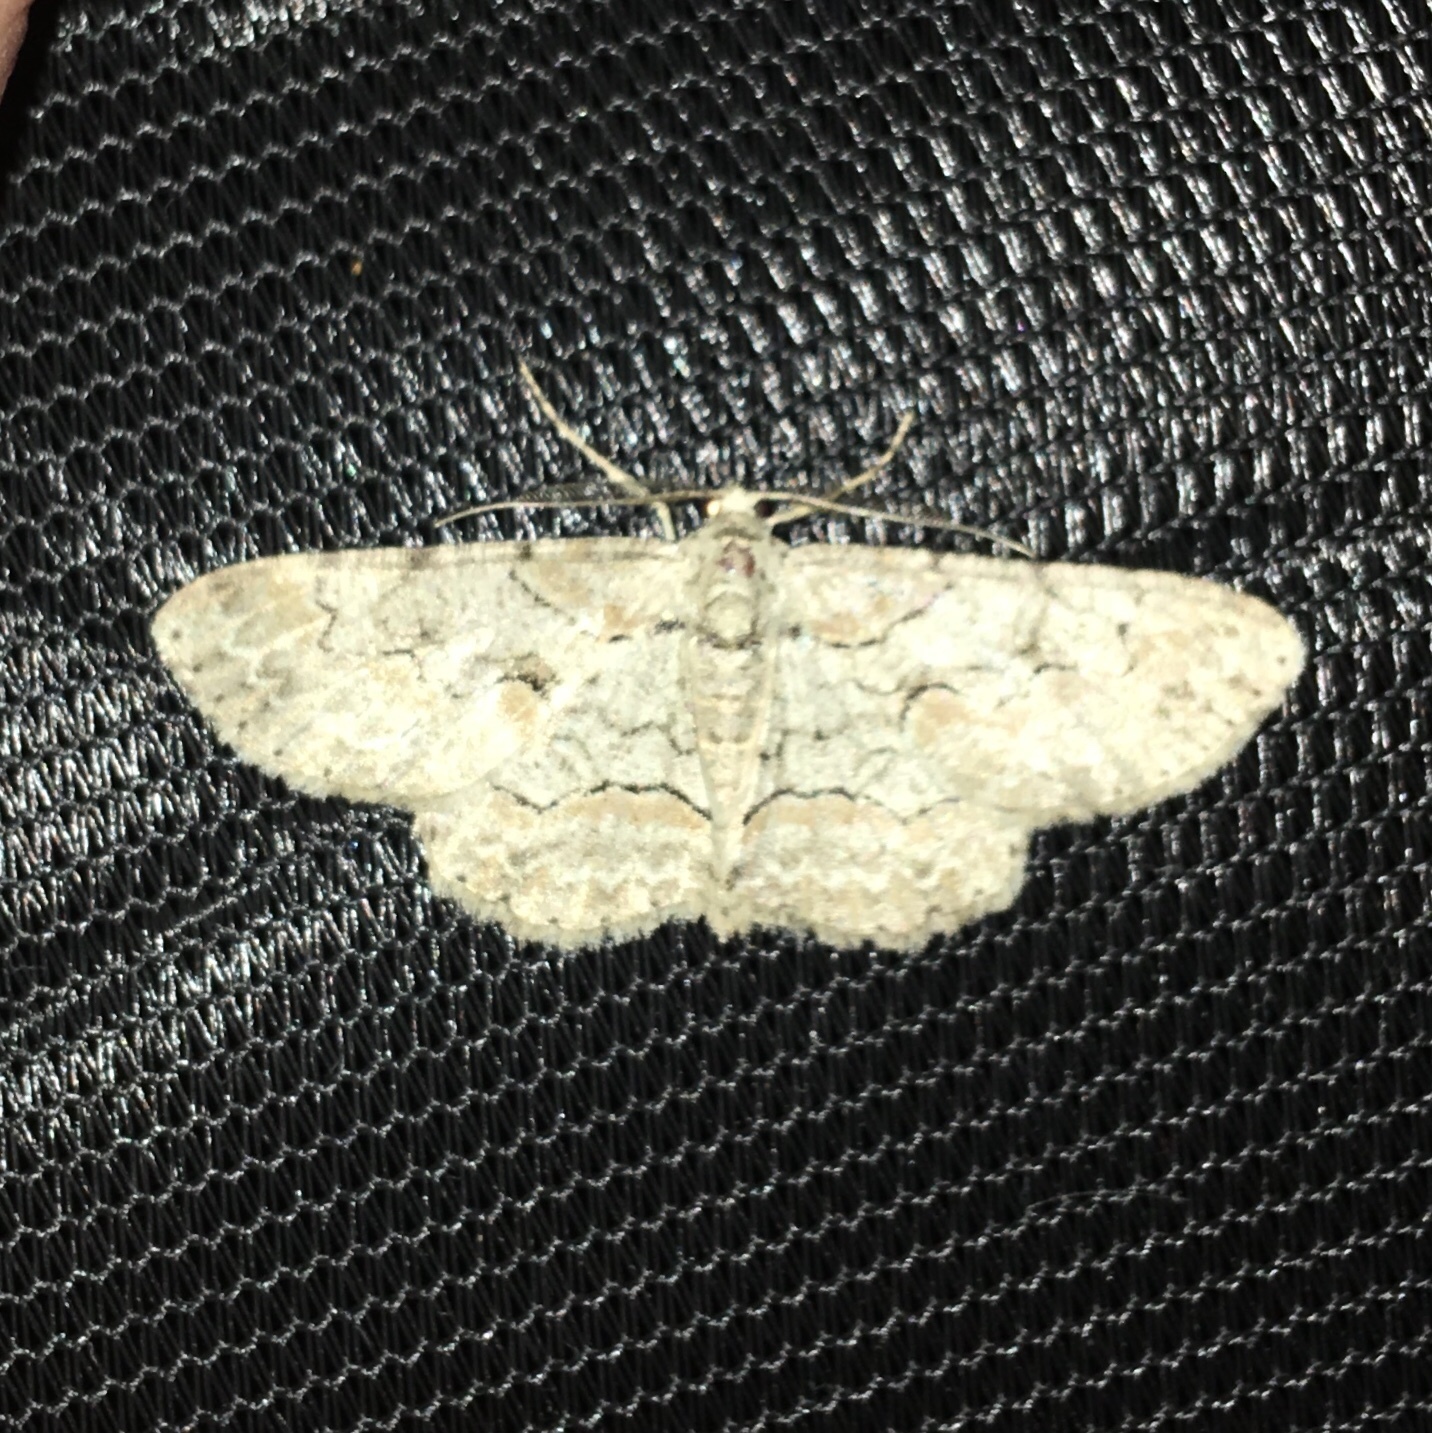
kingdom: Animalia
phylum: Arthropoda
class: Insecta
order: Lepidoptera
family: Geometridae
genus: Iridopsis
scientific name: Iridopsis defectaria
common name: Brown-shaded gray
